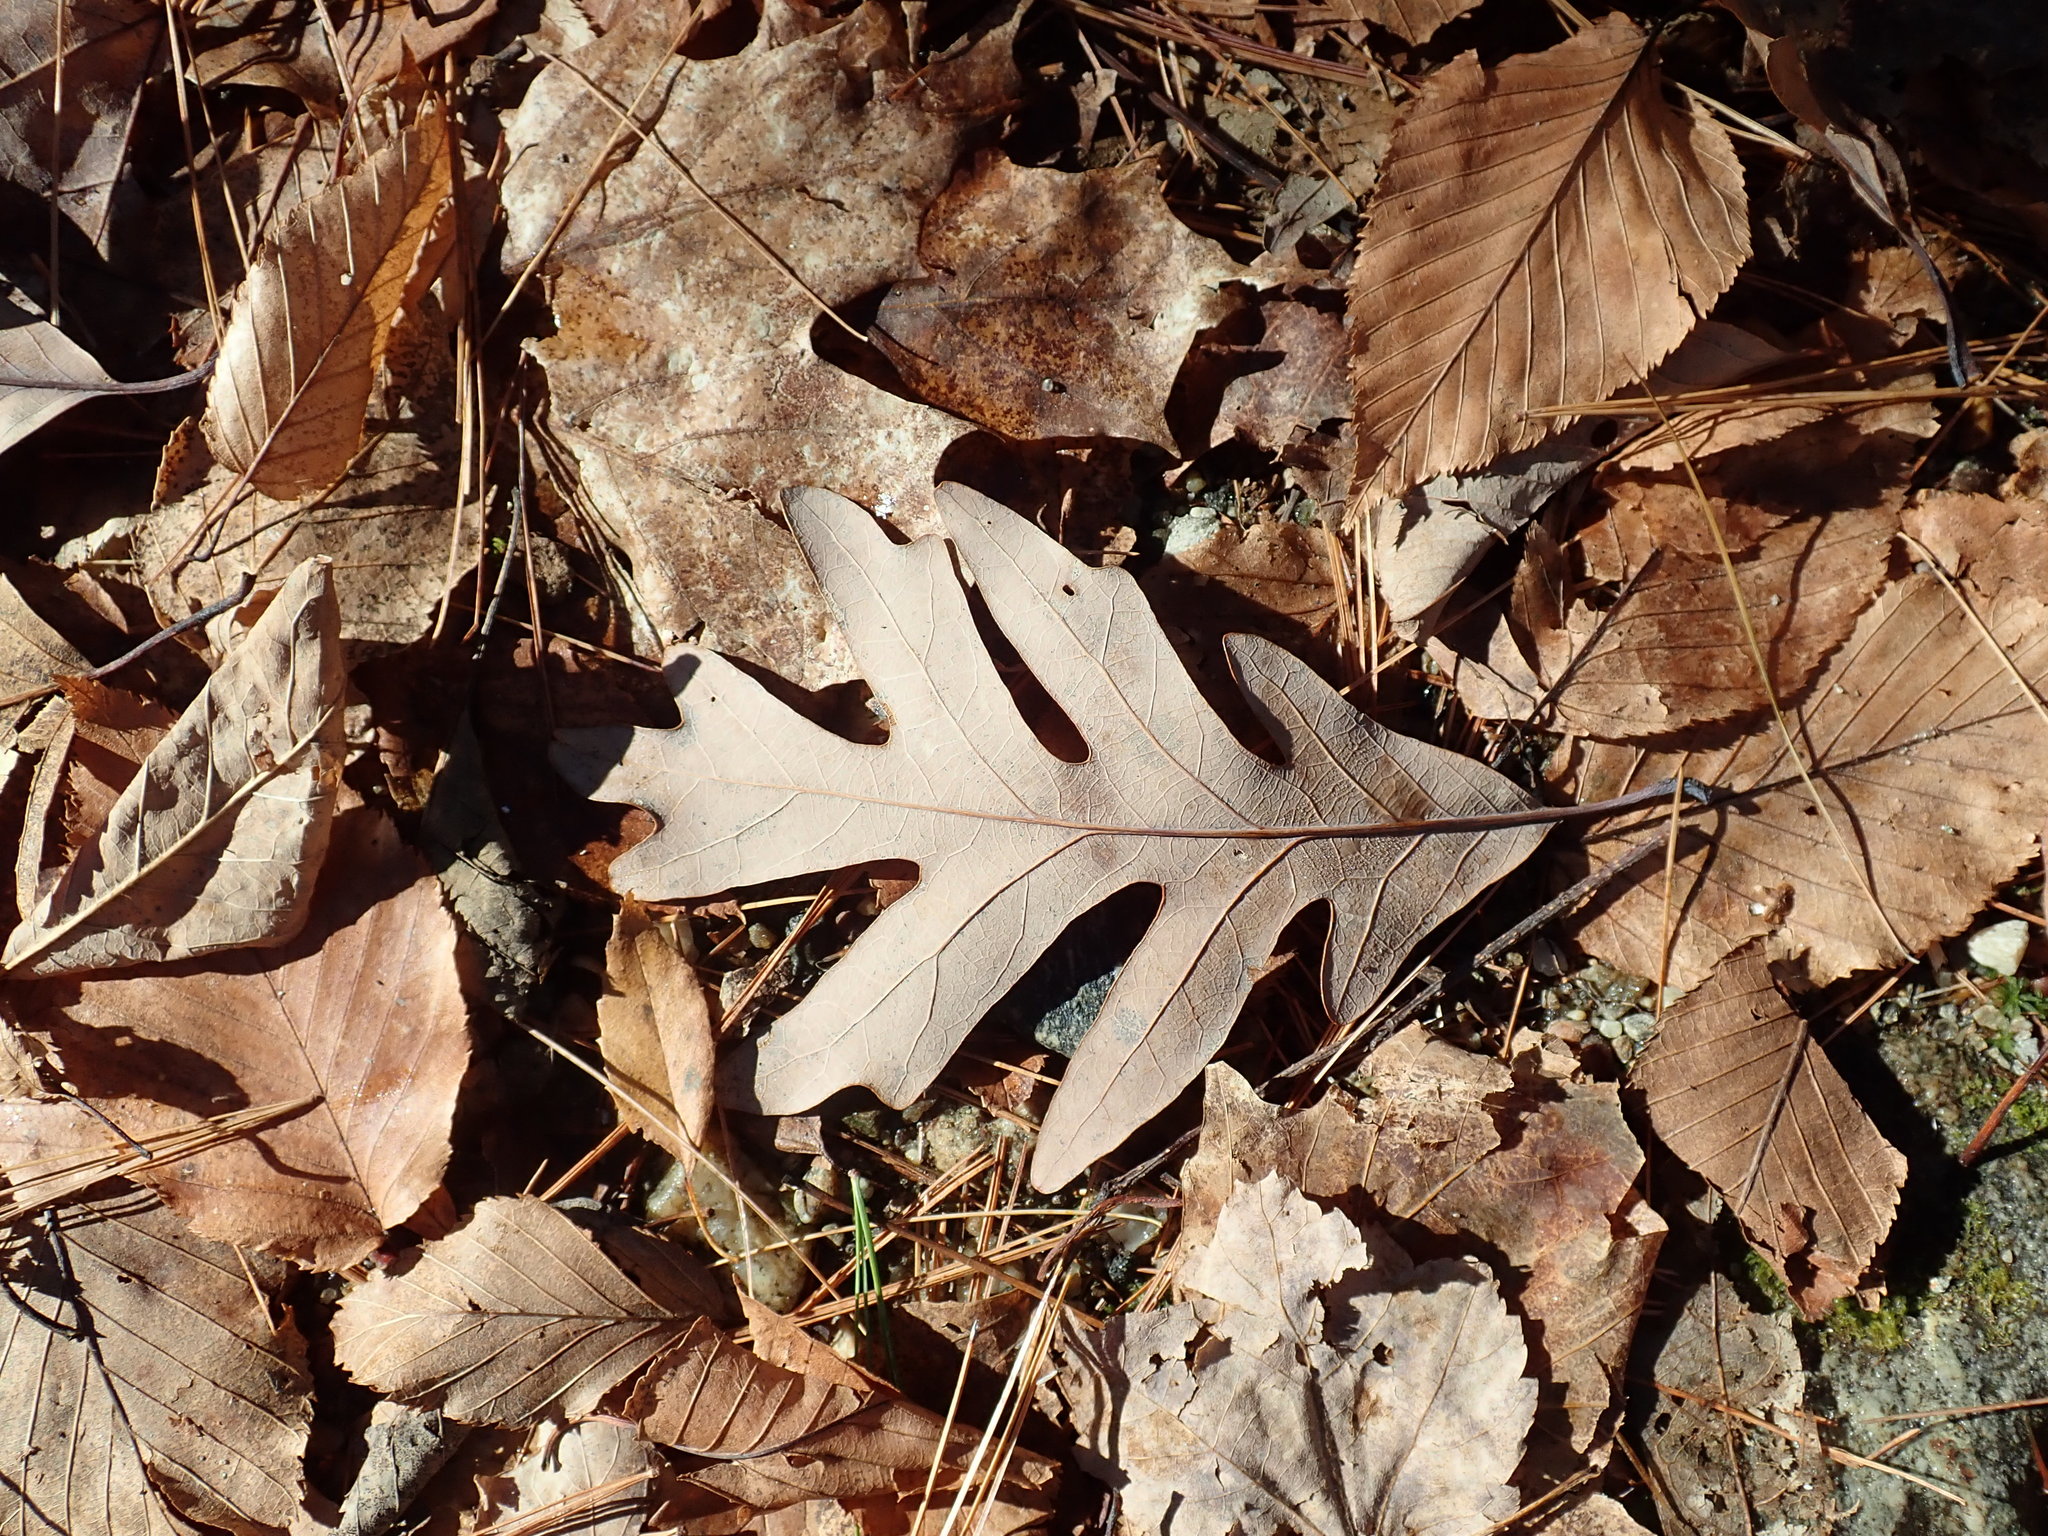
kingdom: Plantae
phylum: Tracheophyta
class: Magnoliopsida
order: Fagales
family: Fagaceae
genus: Quercus
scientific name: Quercus alba
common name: White oak
